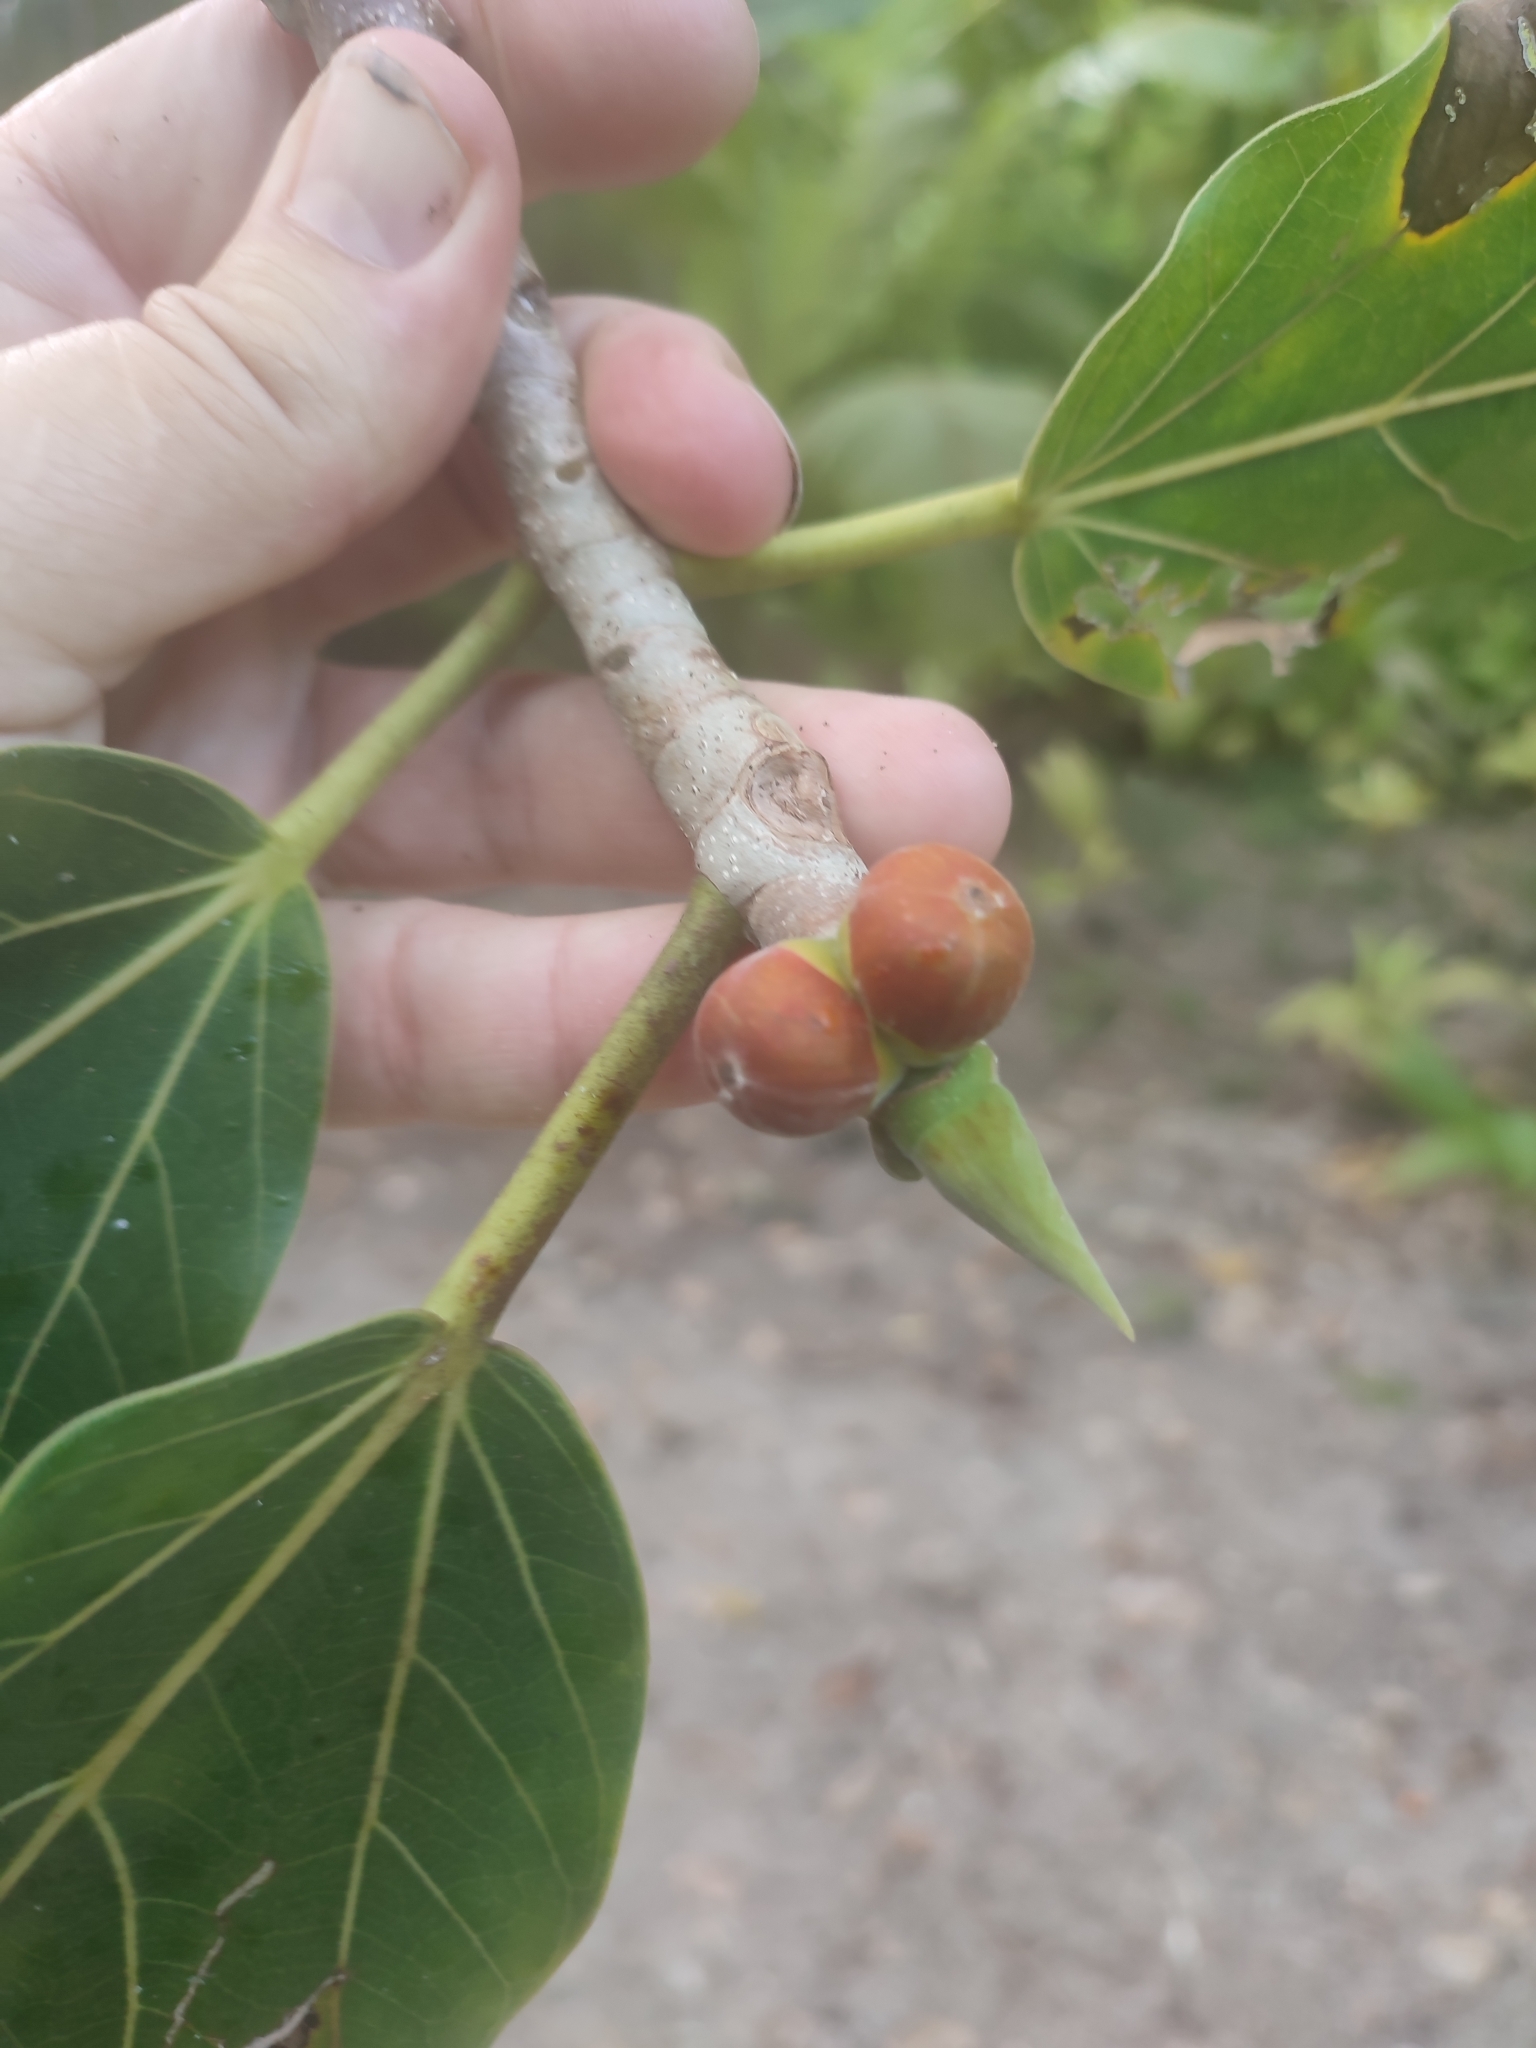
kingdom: Plantae
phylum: Tracheophyta
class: Magnoliopsida
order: Rosales
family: Moraceae
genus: Ficus
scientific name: Ficus benghalensis
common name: Indian banyan
